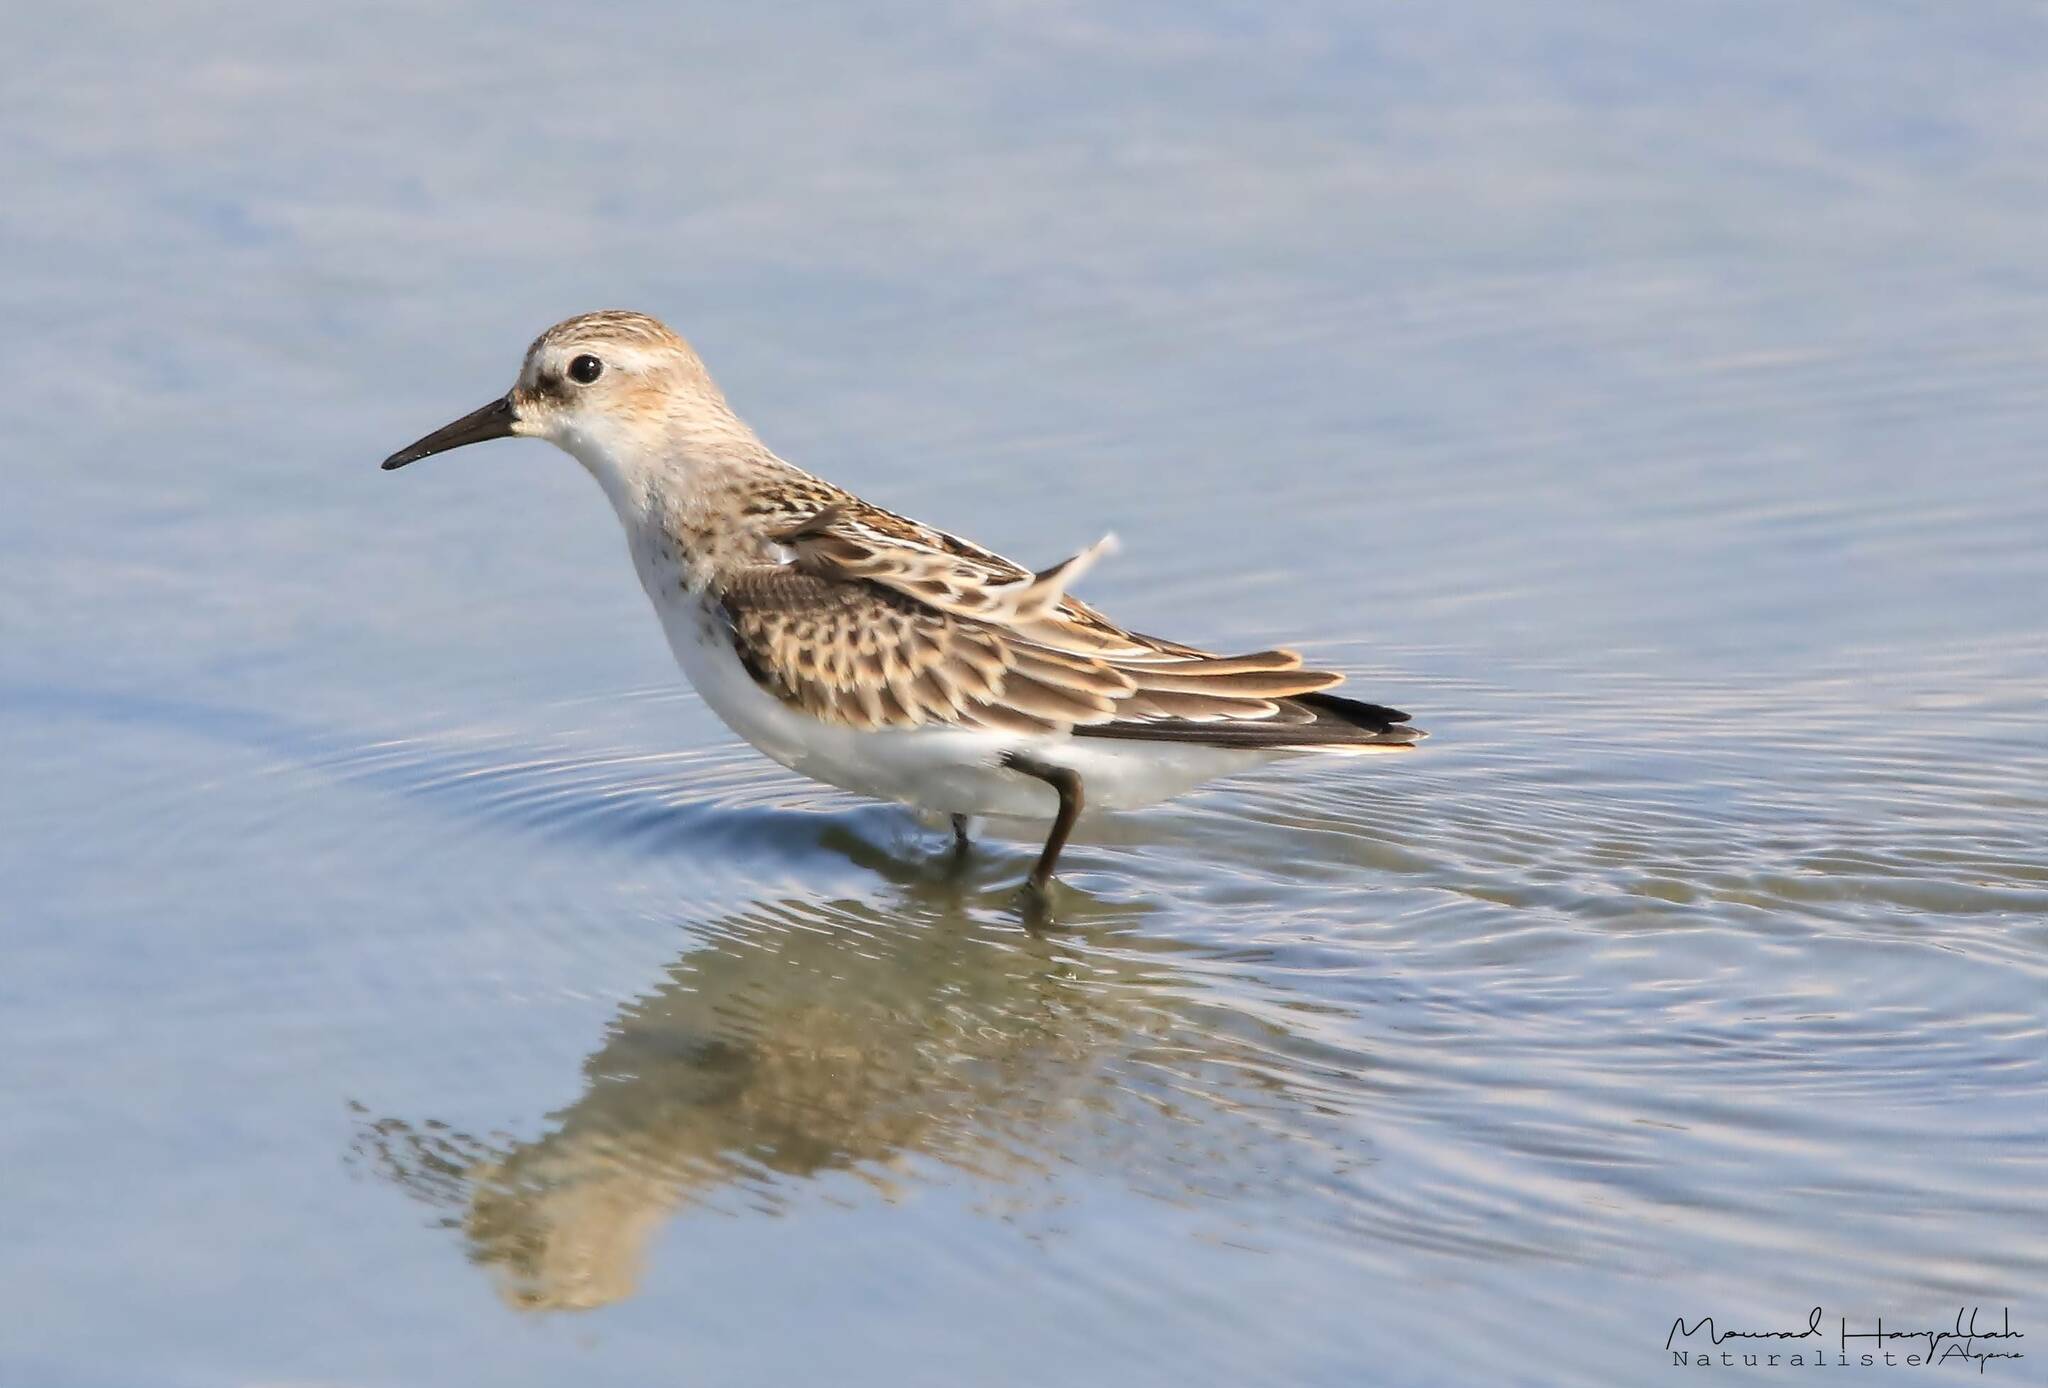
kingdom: Animalia
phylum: Chordata
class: Aves
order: Charadriiformes
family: Scolopacidae
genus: Calidris
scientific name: Calidris minuta
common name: Little stint
